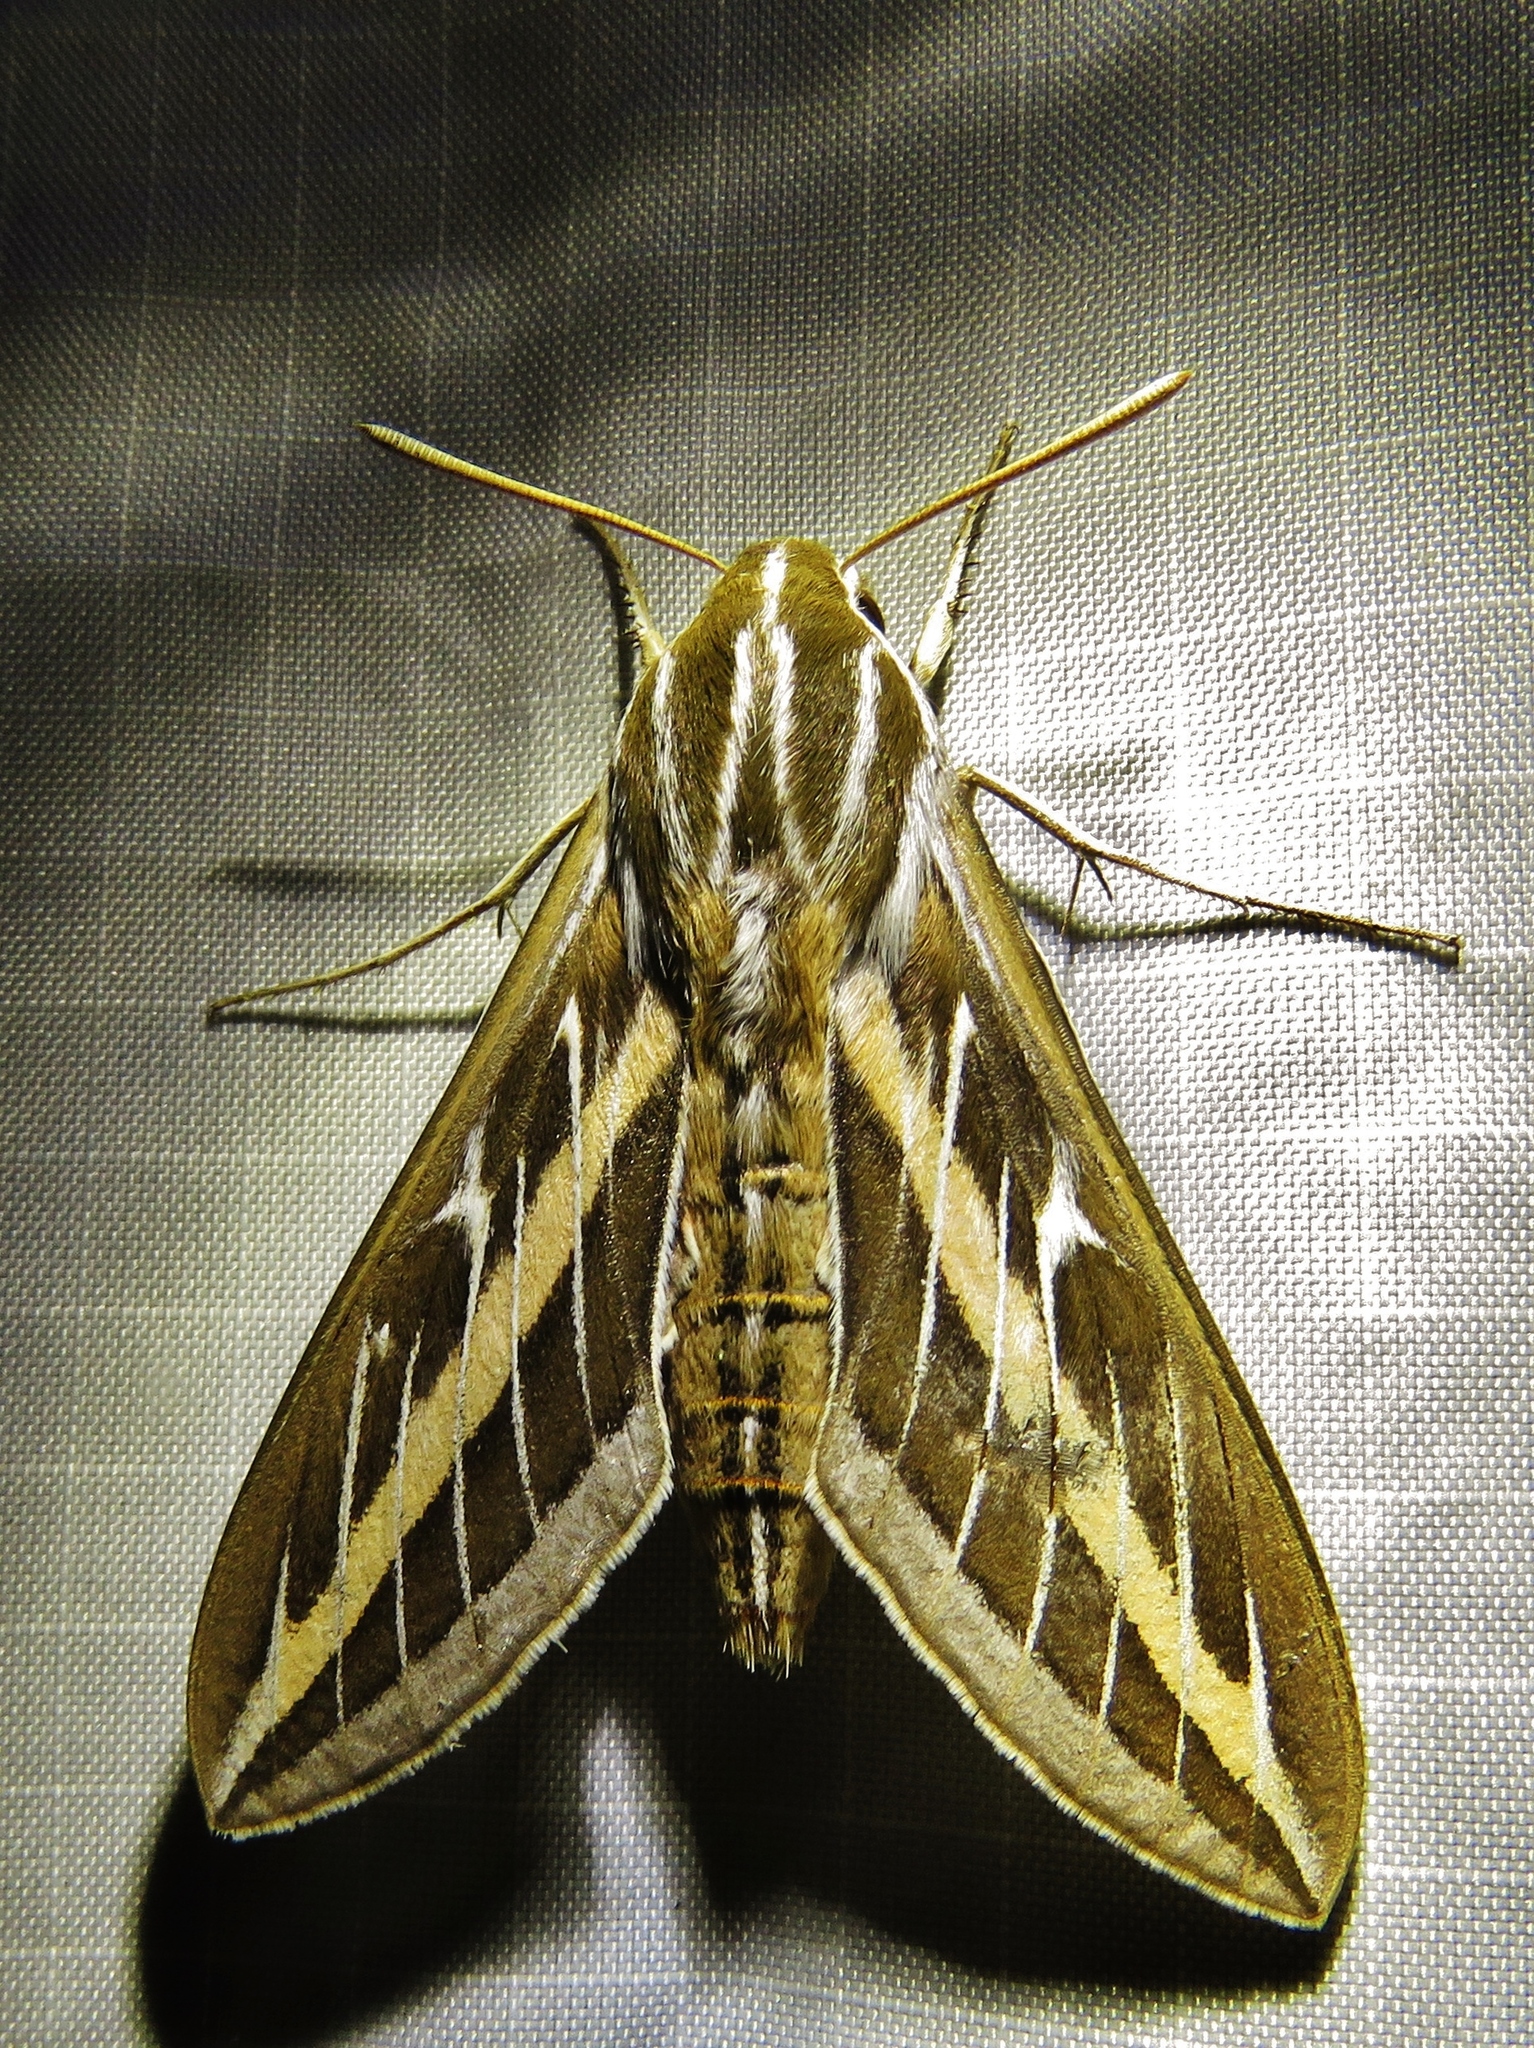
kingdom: Animalia
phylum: Arthropoda
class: Insecta
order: Lepidoptera
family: Sphingidae
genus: Hyles
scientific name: Hyles lineata
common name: White-lined sphinx
